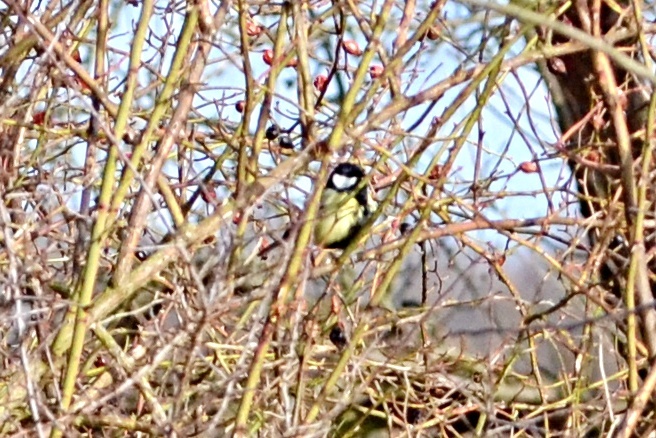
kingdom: Animalia
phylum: Chordata
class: Aves
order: Passeriformes
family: Paridae
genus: Parus
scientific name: Parus major
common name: Great tit
